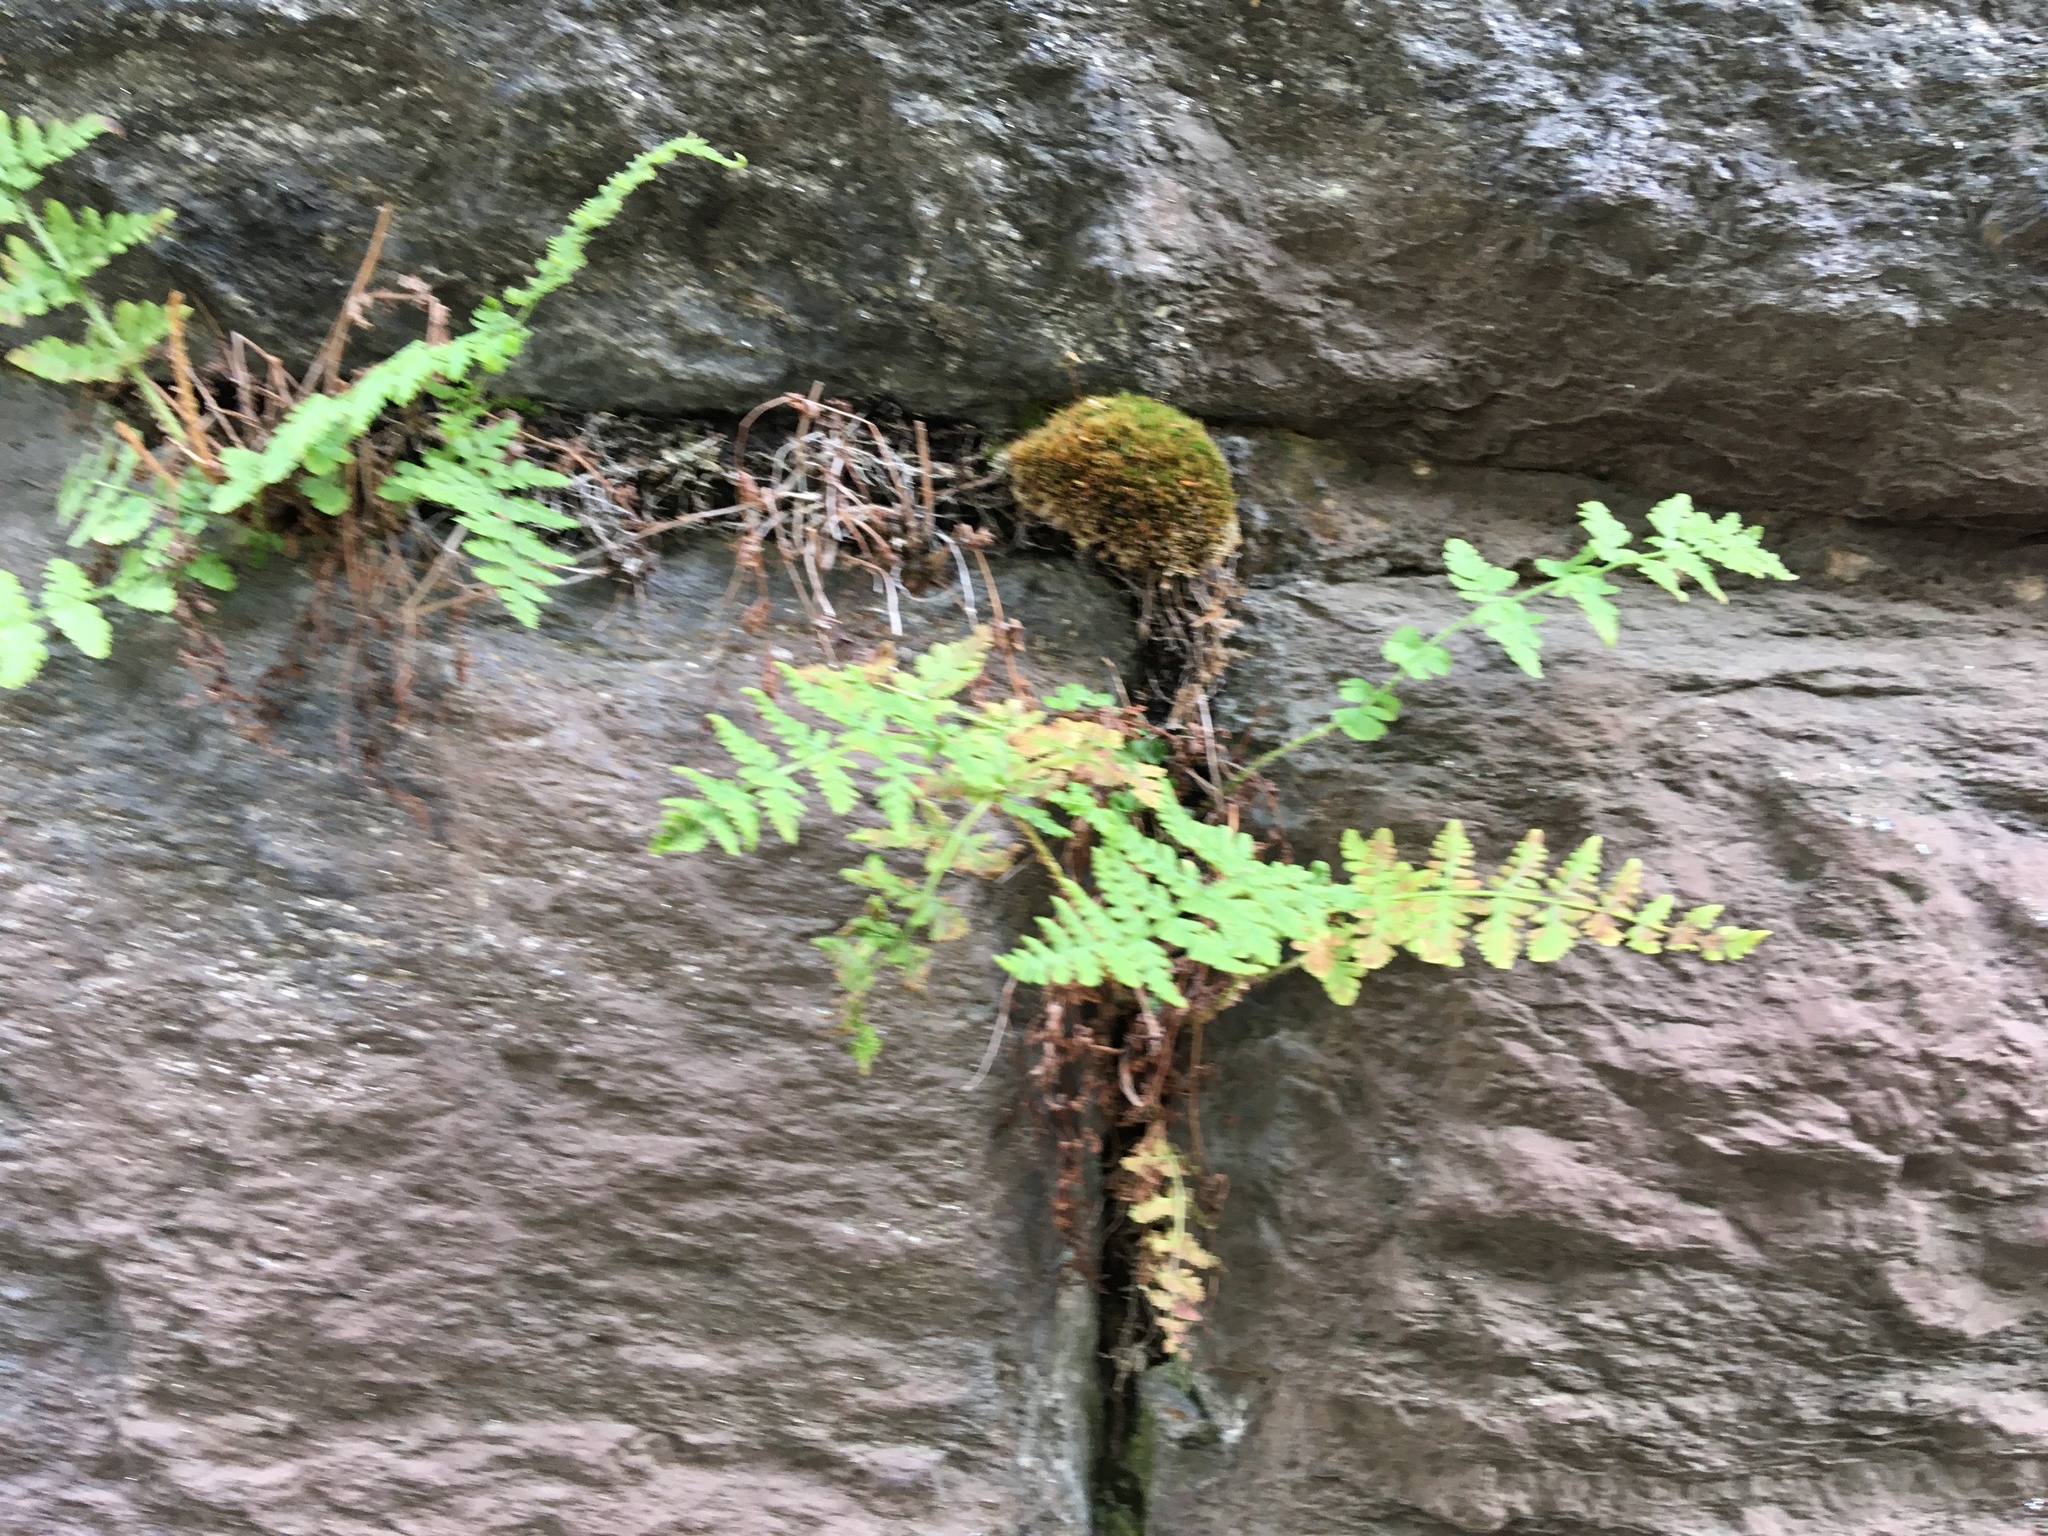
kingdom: Plantae
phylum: Tracheophyta
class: Polypodiopsida
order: Polypodiales
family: Woodsiaceae
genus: Physematium
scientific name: Physematium obtusum
